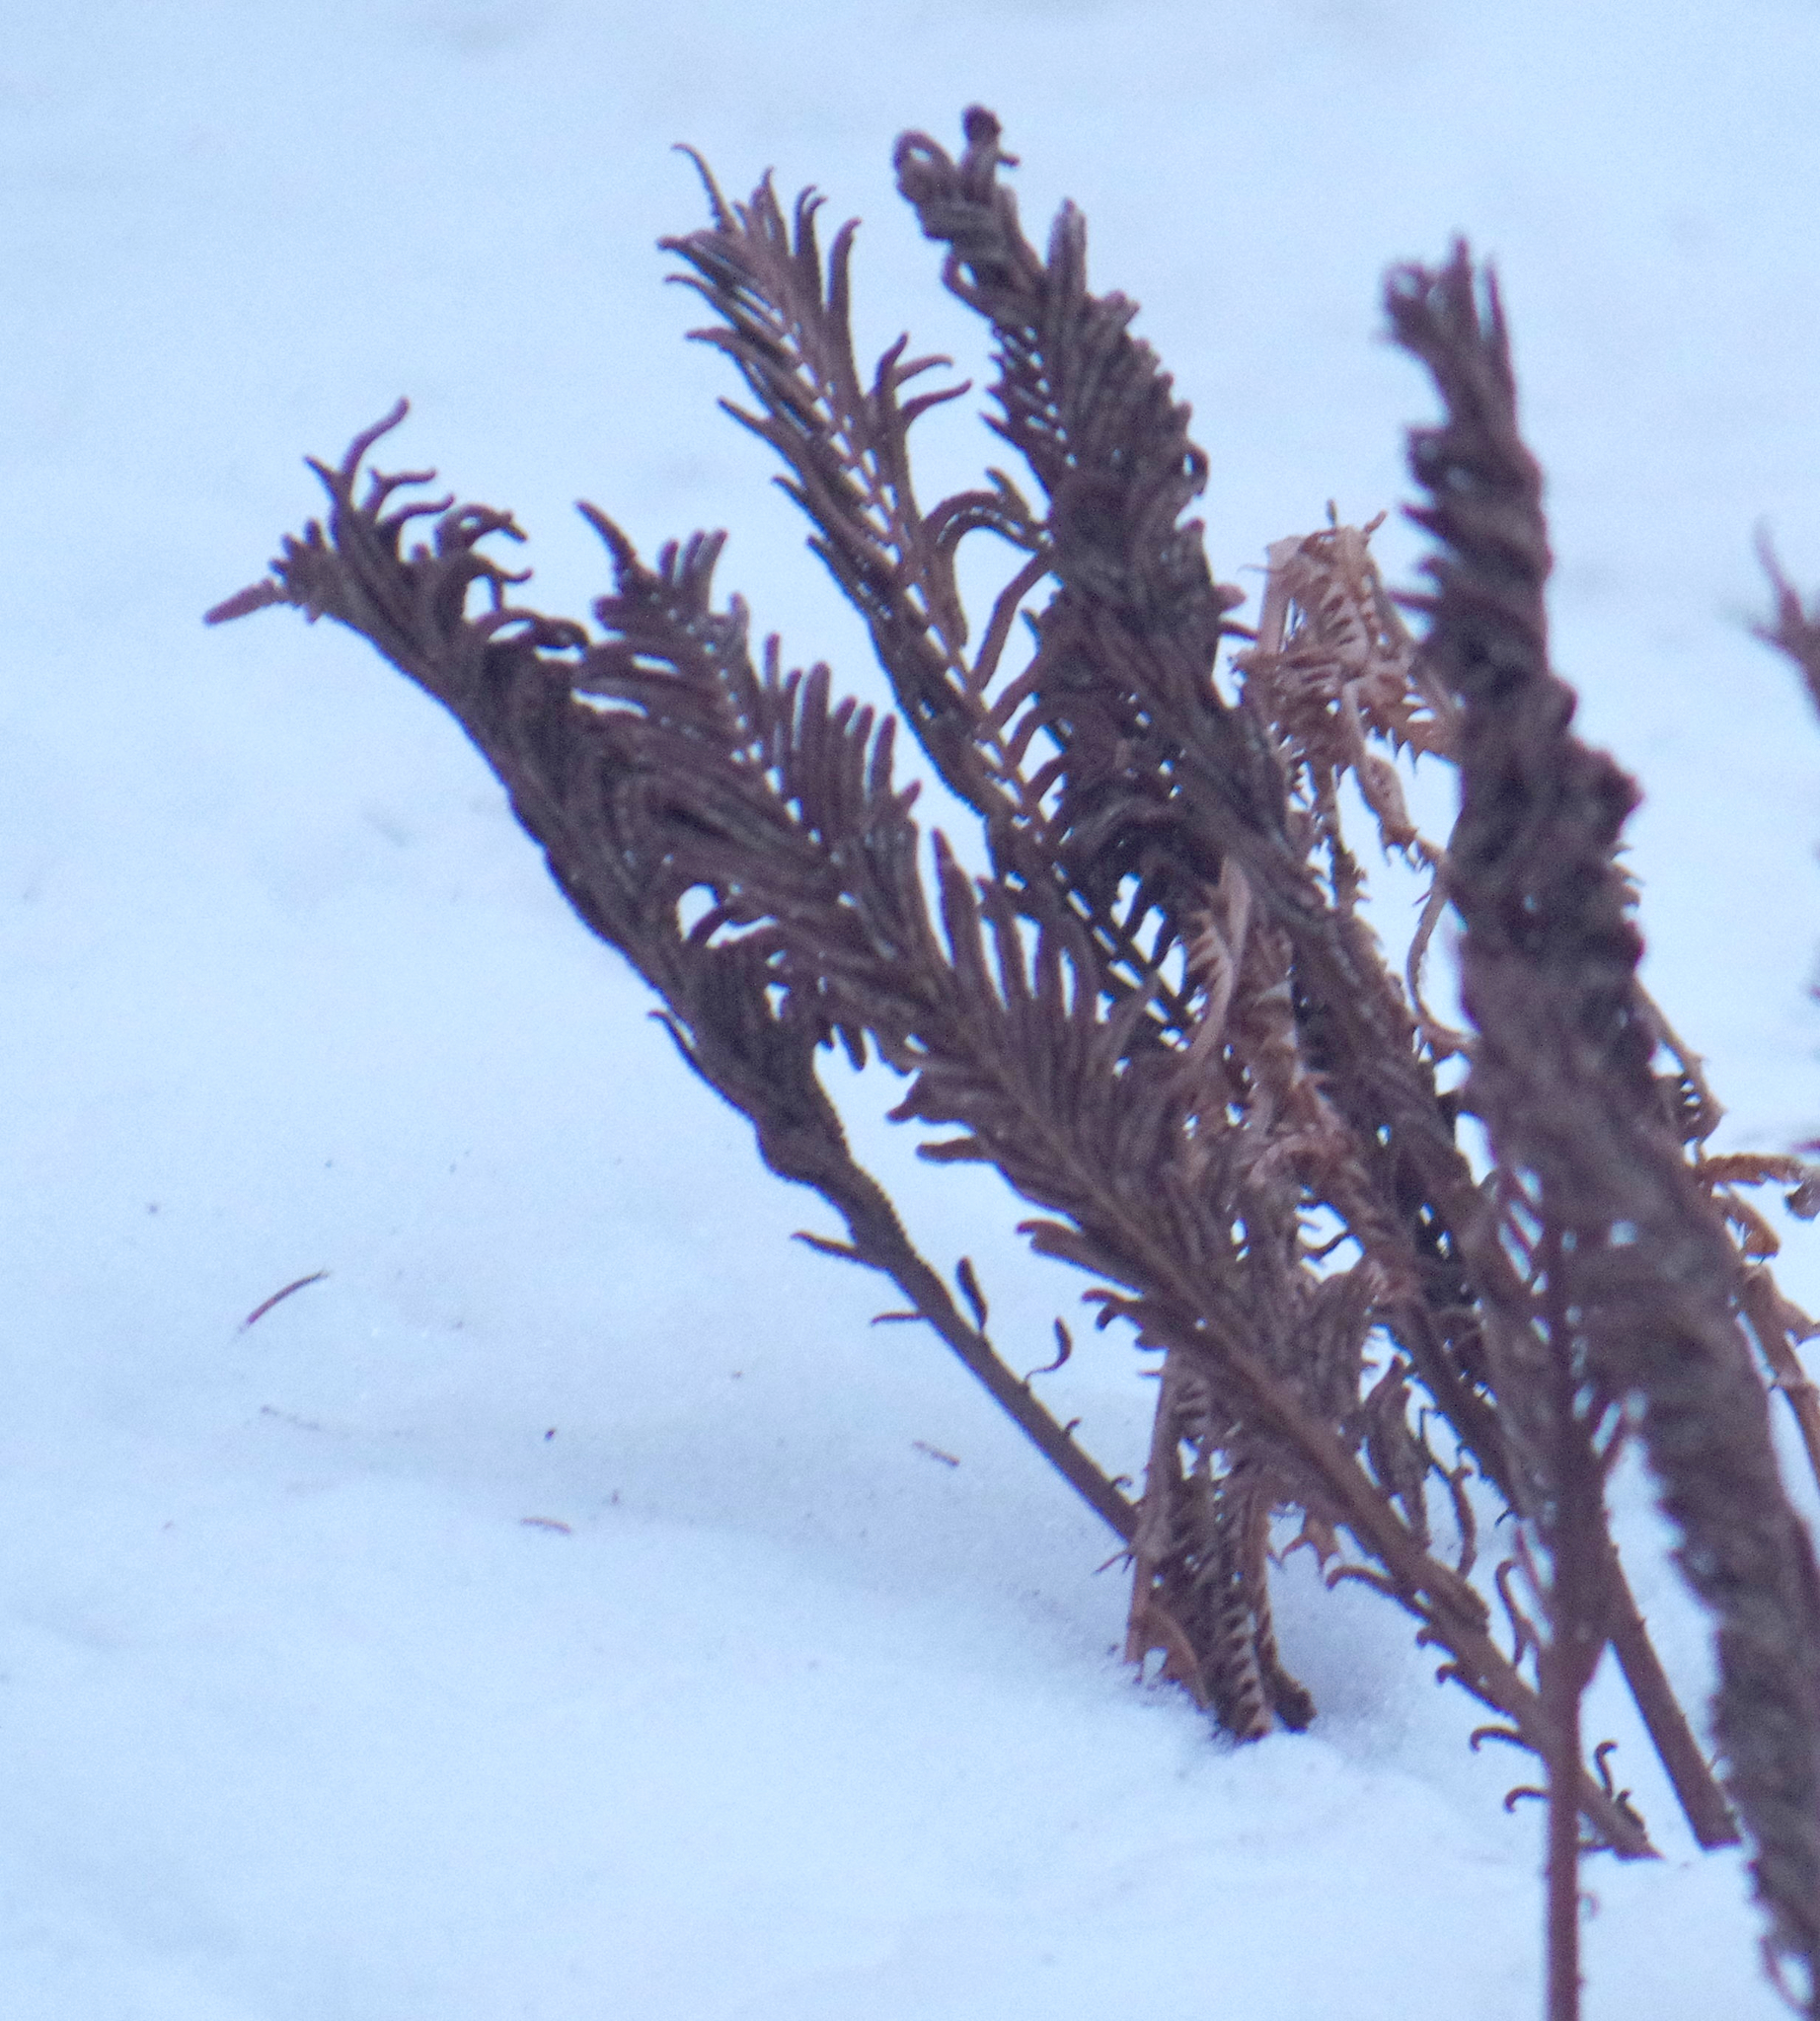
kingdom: Plantae
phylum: Tracheophyta
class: Polypodiopsida
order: Polypodiales
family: Onocleaceae
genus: Matteuccia
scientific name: Matteuccia struthiopteris
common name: Ostrich fern
